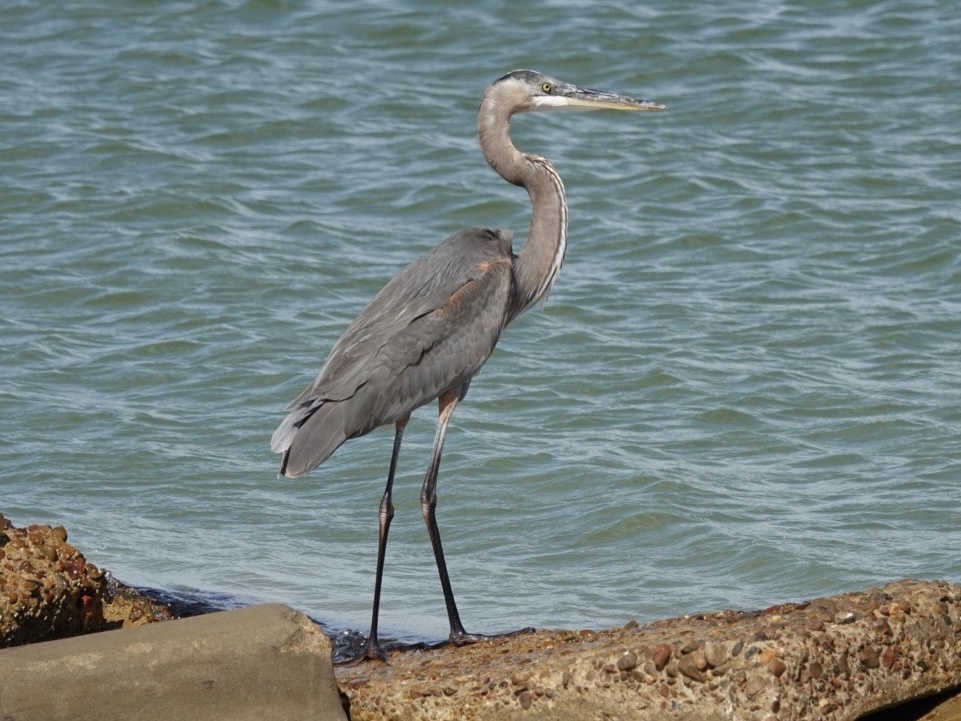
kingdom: Animalia
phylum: Chordata
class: Aves
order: Pelecaniformes
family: Ardeidae
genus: Ardea
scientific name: Ardea herodias
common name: Great blue heron
